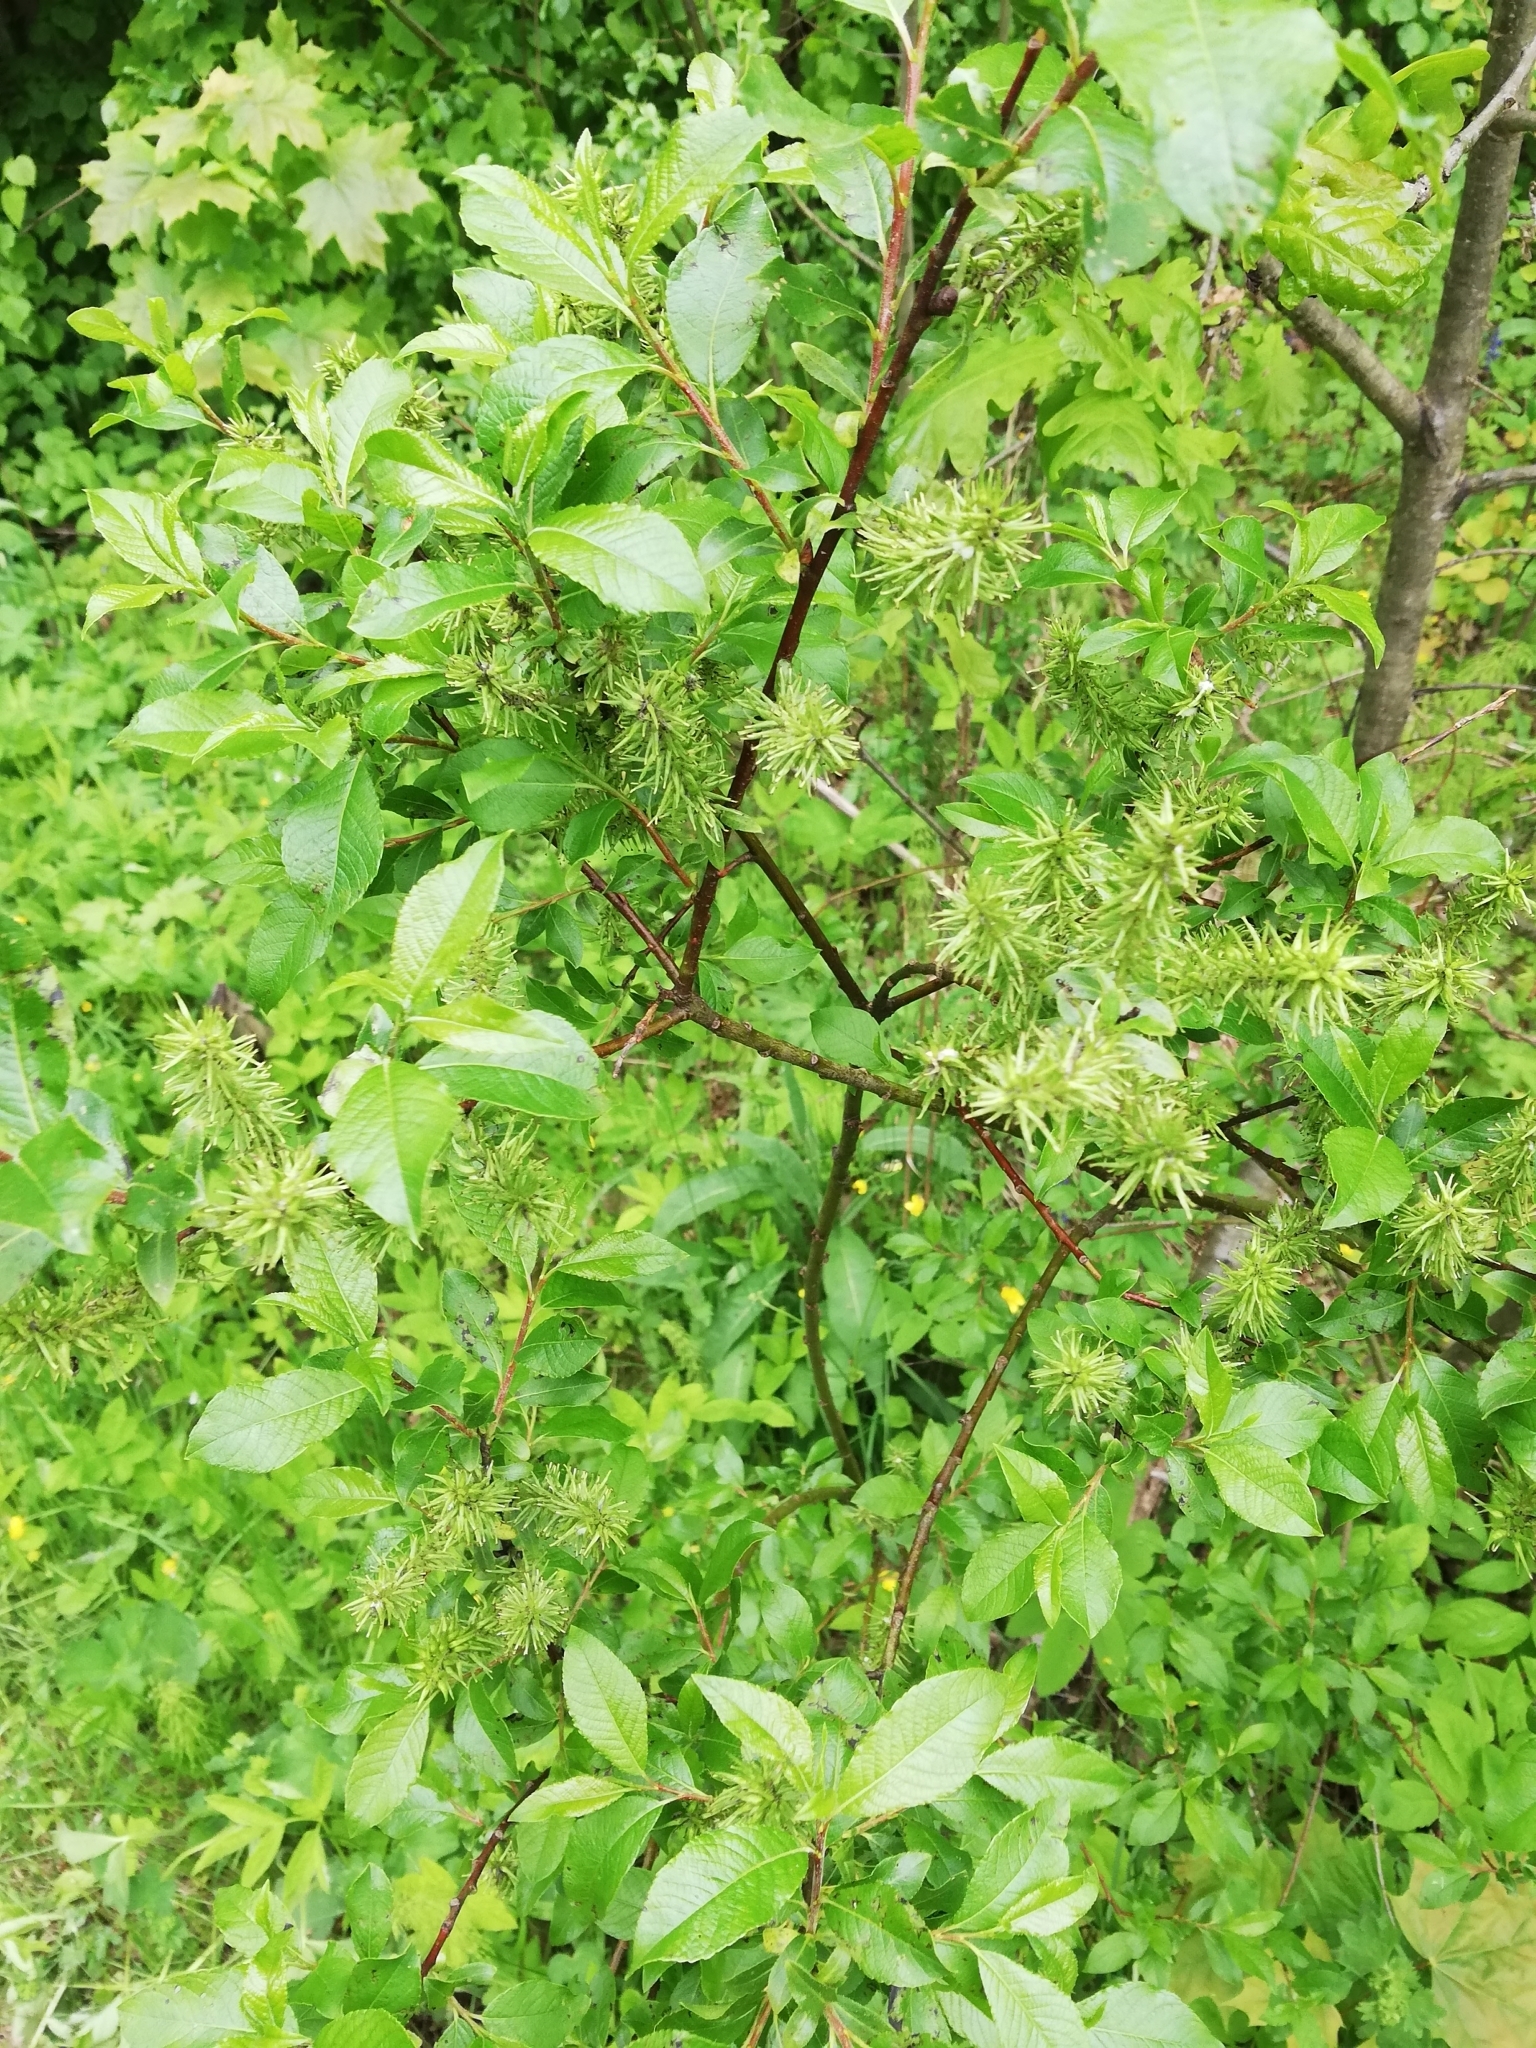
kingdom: Plantae
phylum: Tracheophyta
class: Magnoliopsida
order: Malpighiales
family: Salicaceae
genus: Salix
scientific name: Salix myrsinifolia
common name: Dark-leaved willow
